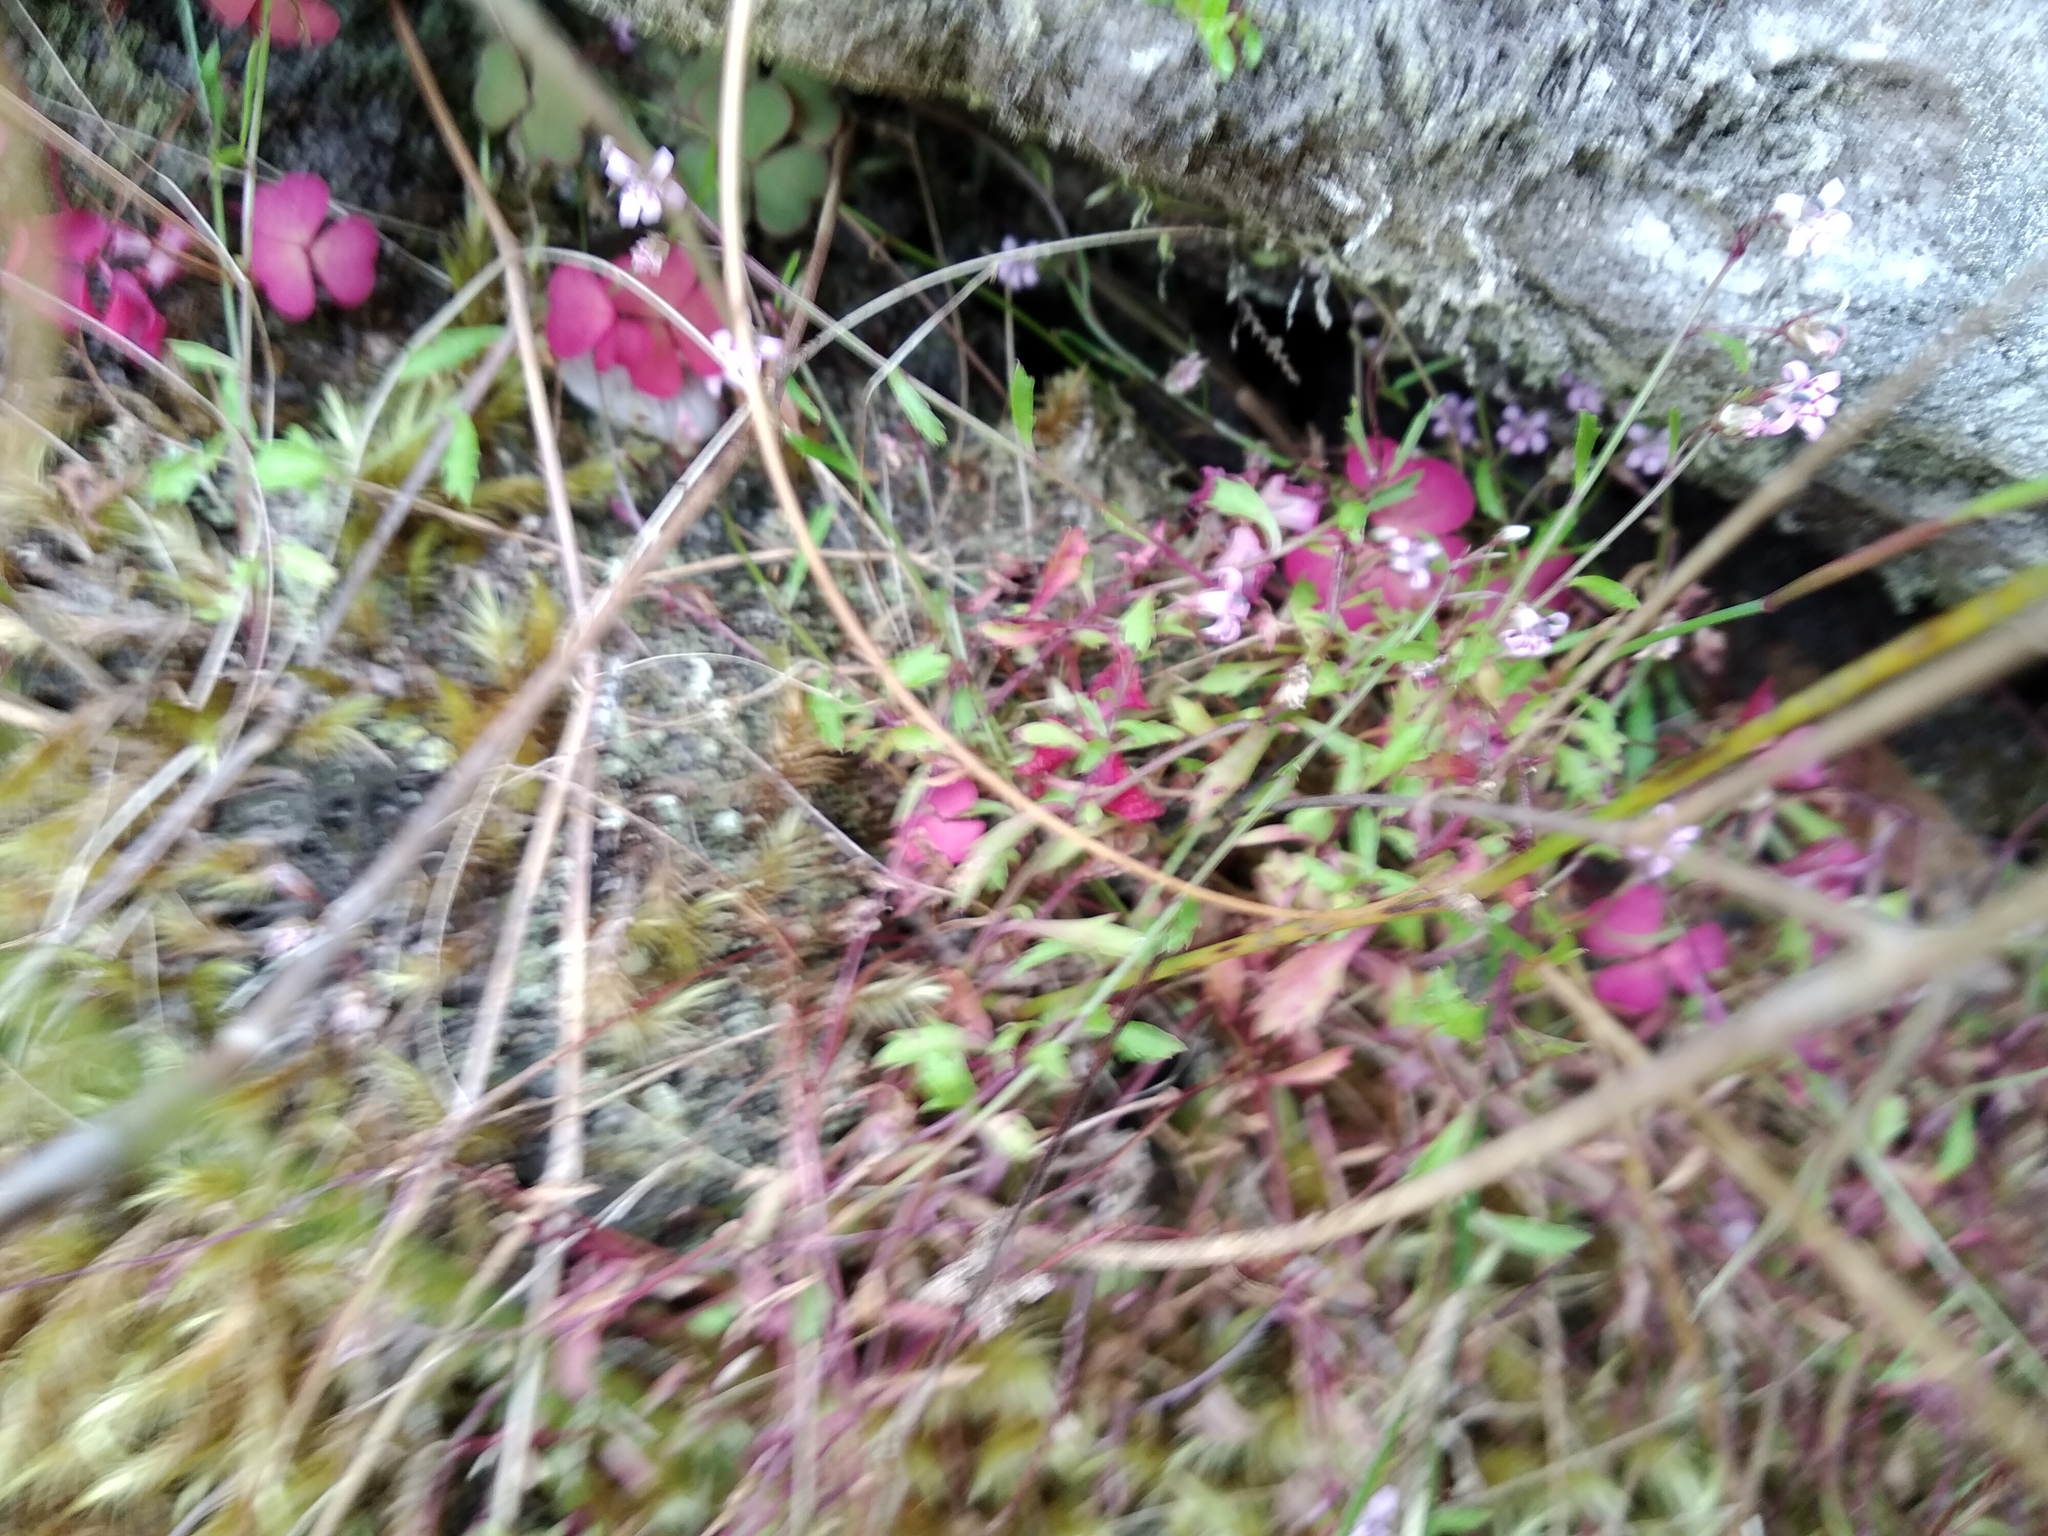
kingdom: Plantae
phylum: Tracheophyta
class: Magnoliopsida
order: Asterales
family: Campanulaceae
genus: Lobelia
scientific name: Lobelia eckloniana
